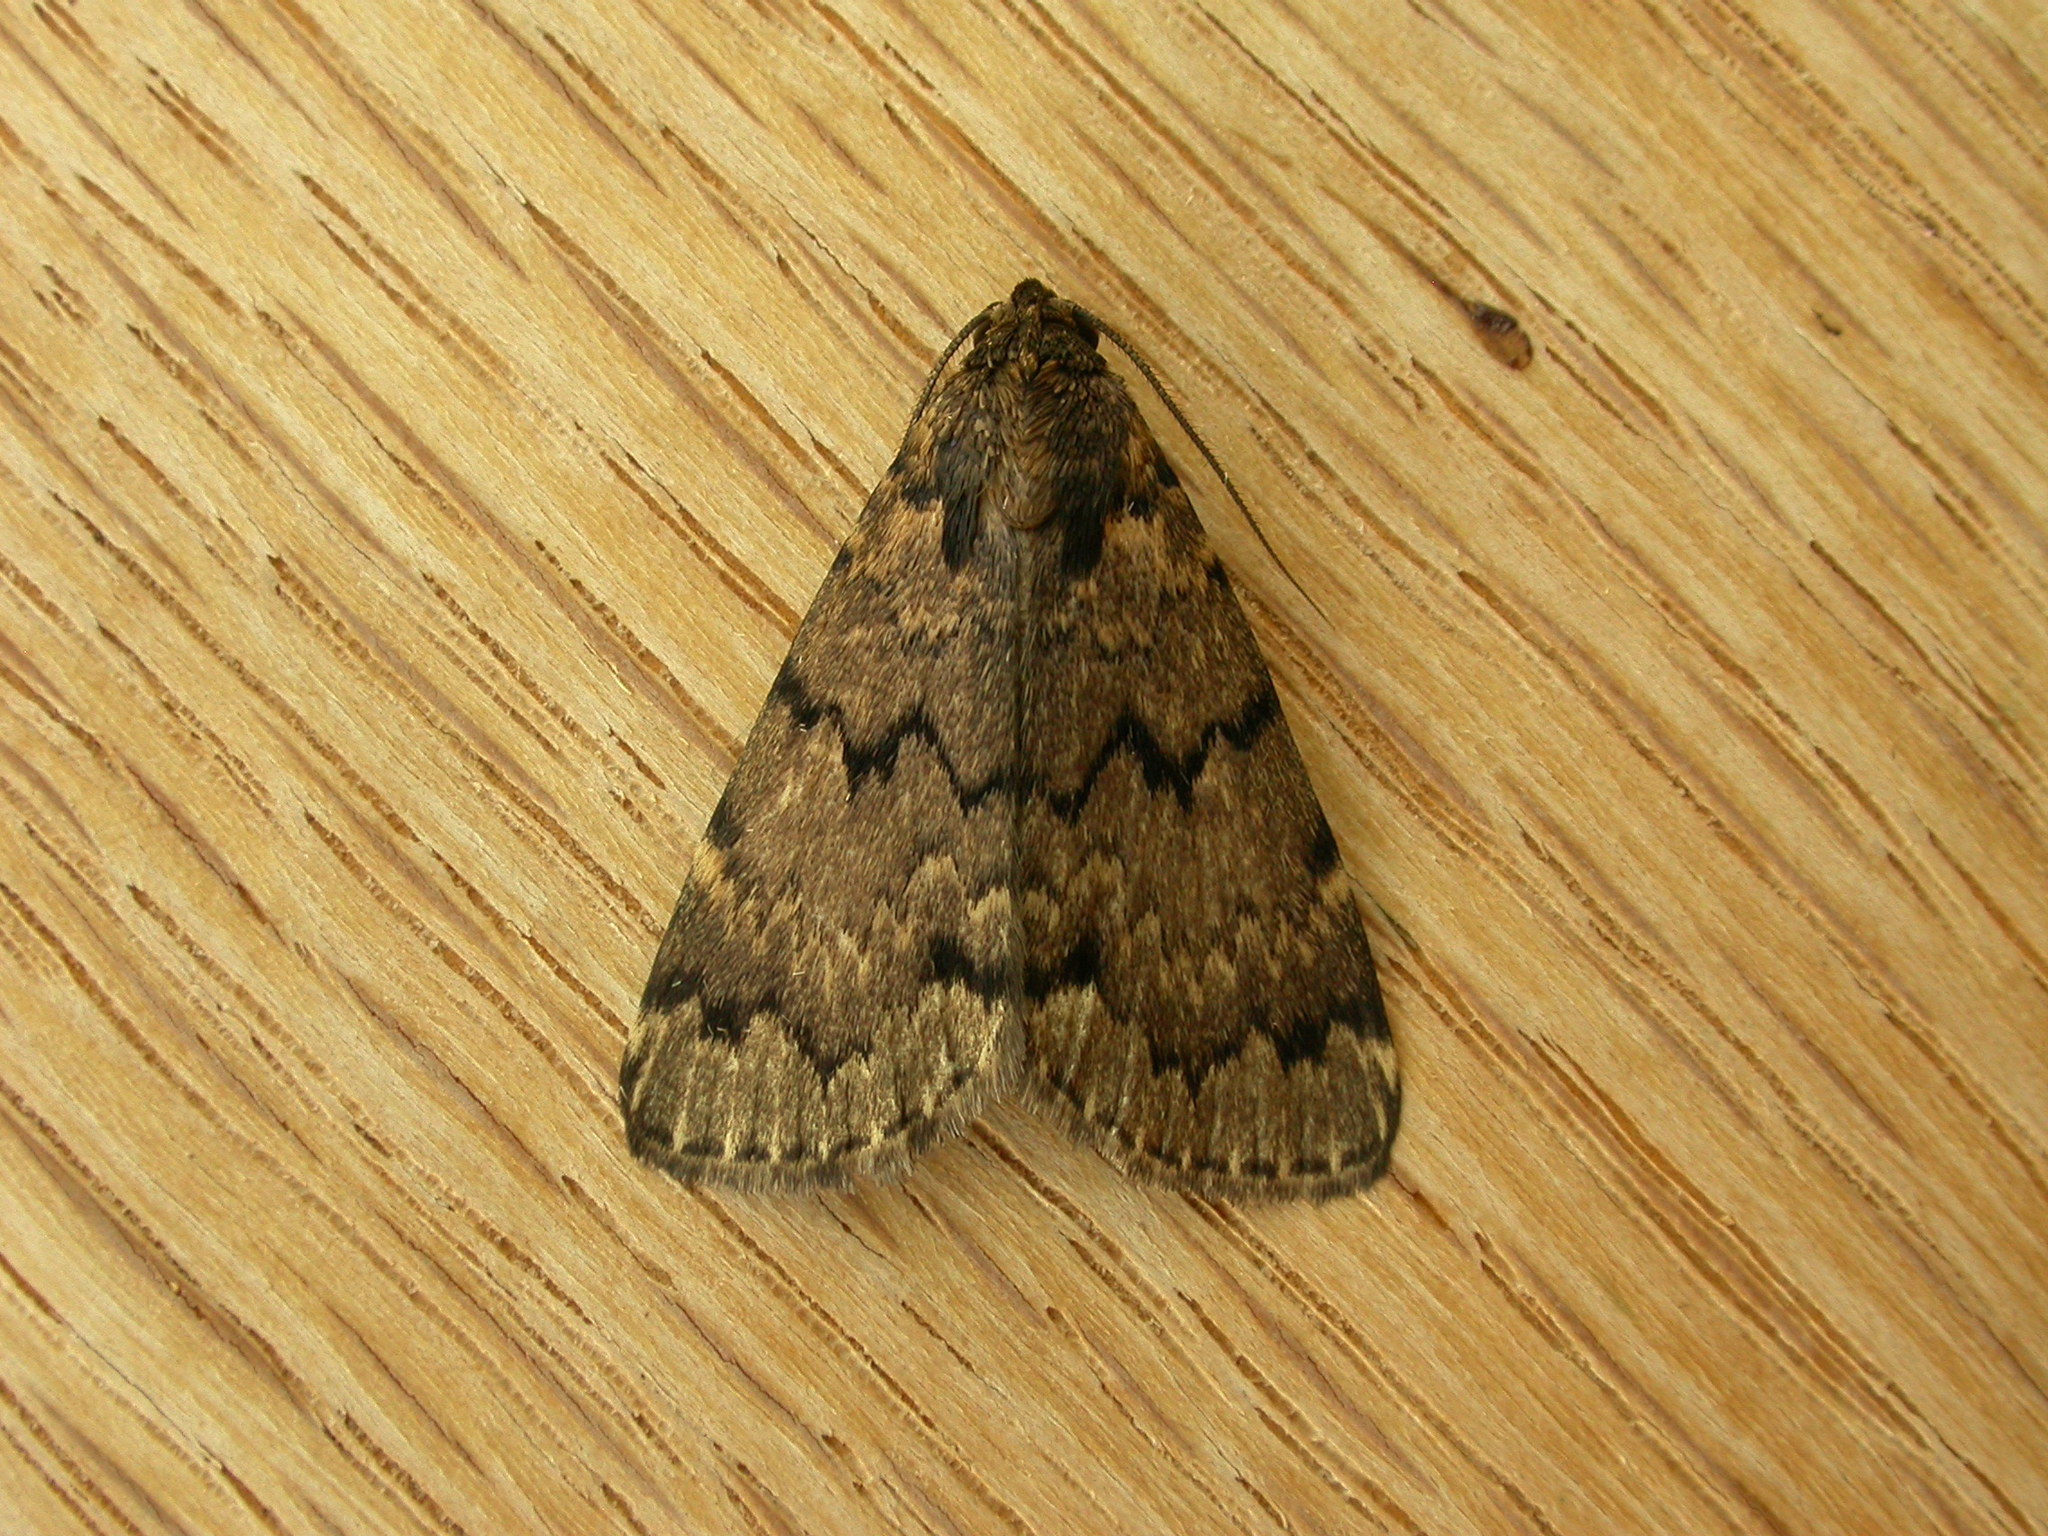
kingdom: Animalia
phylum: Arthropoda
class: Insecta
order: Lepidoptera
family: Erebidae
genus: Mormoscopa
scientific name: Mormoscopa phricozona
